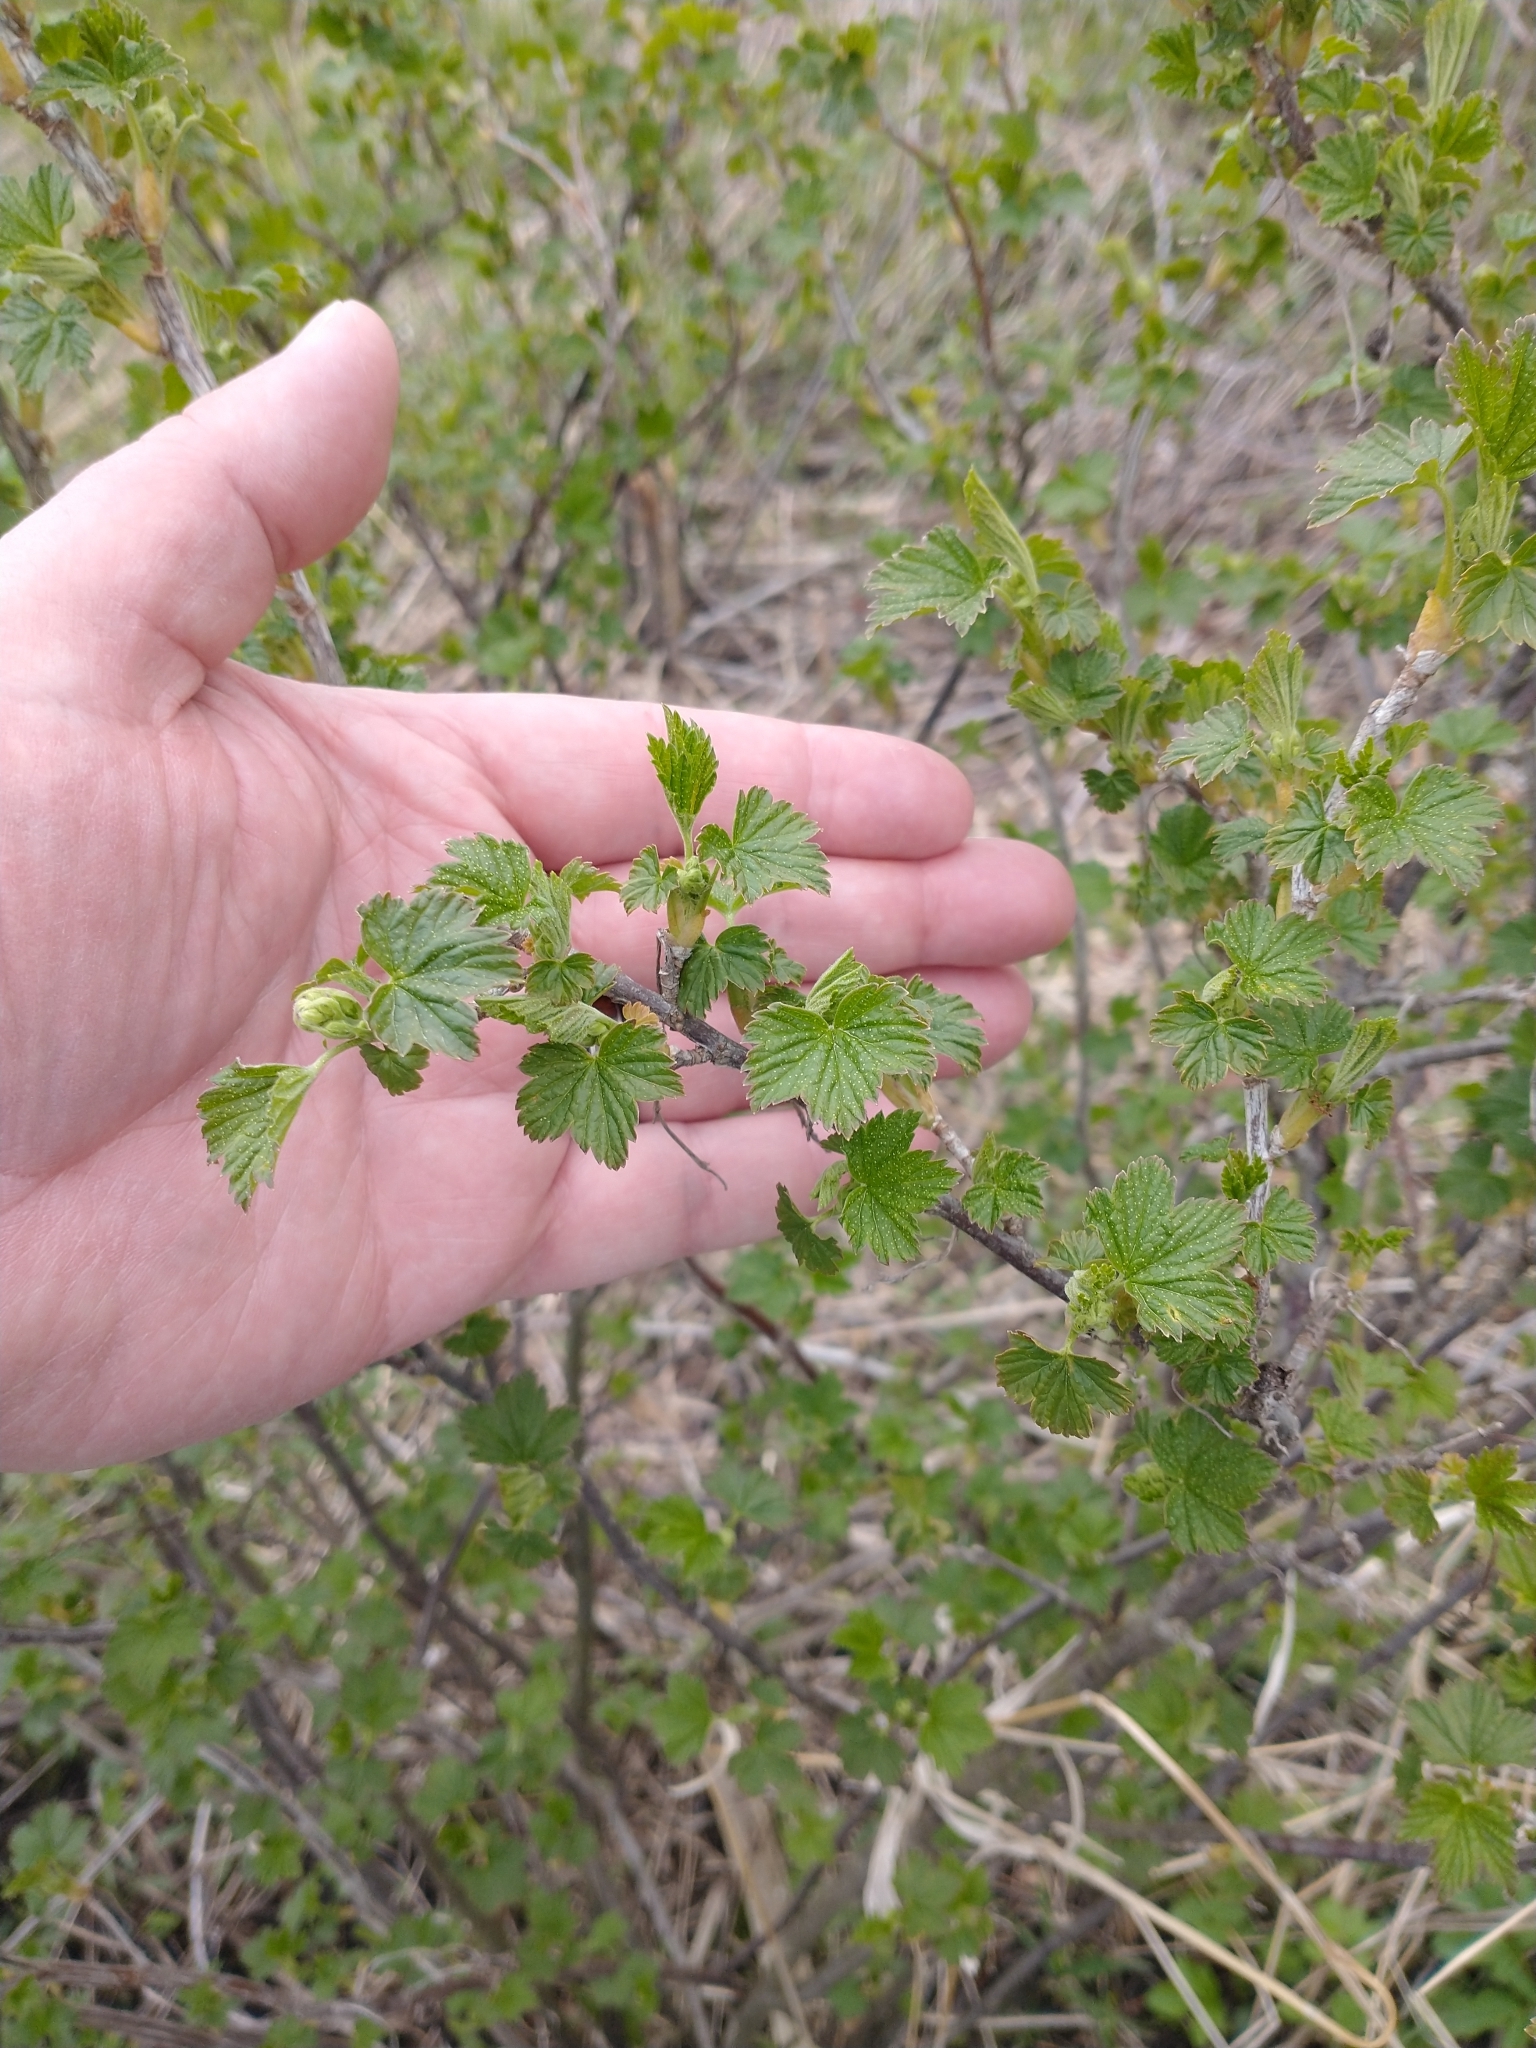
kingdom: Plantae
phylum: Tracheophyta
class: Magnoliopsida
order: Saxifragales
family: Grossulariaceae
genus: Ribes
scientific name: Ribes americanum
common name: American black currant
